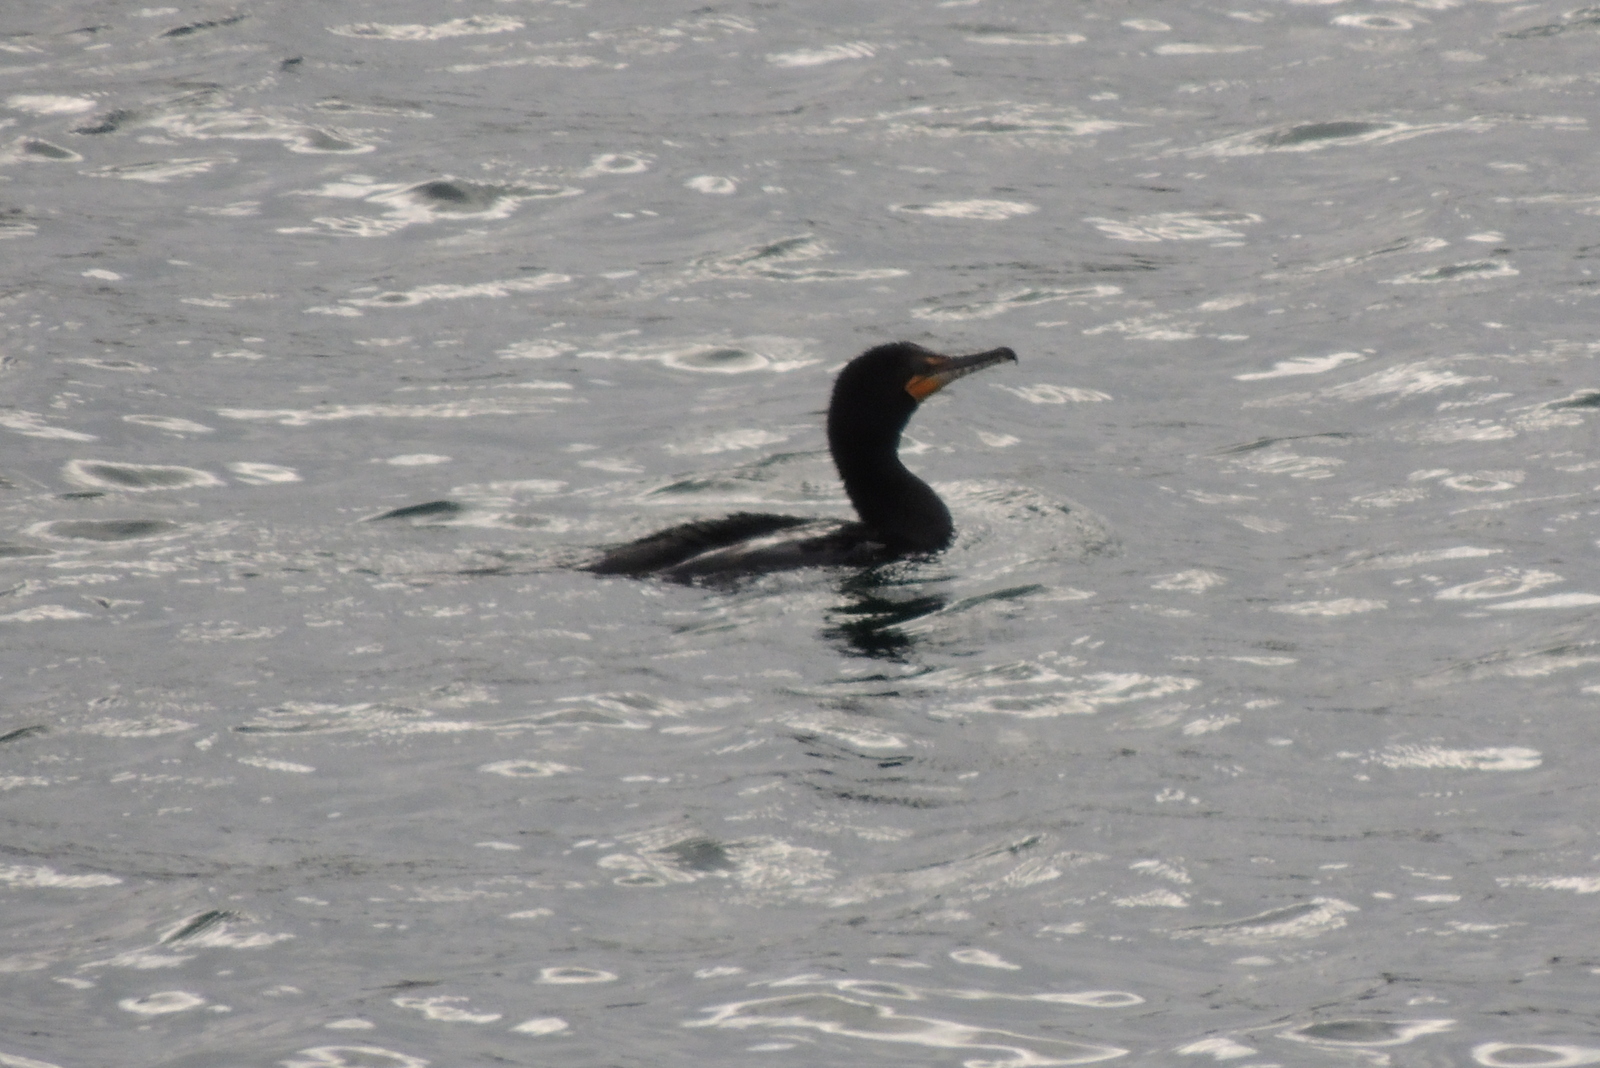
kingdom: Animalia
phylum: Chordata
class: Aves
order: Suliformes
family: Phalacrocoracidae
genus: Phalacrocorax
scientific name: Phalacrocorax auritus
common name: Double-crested cormorant
